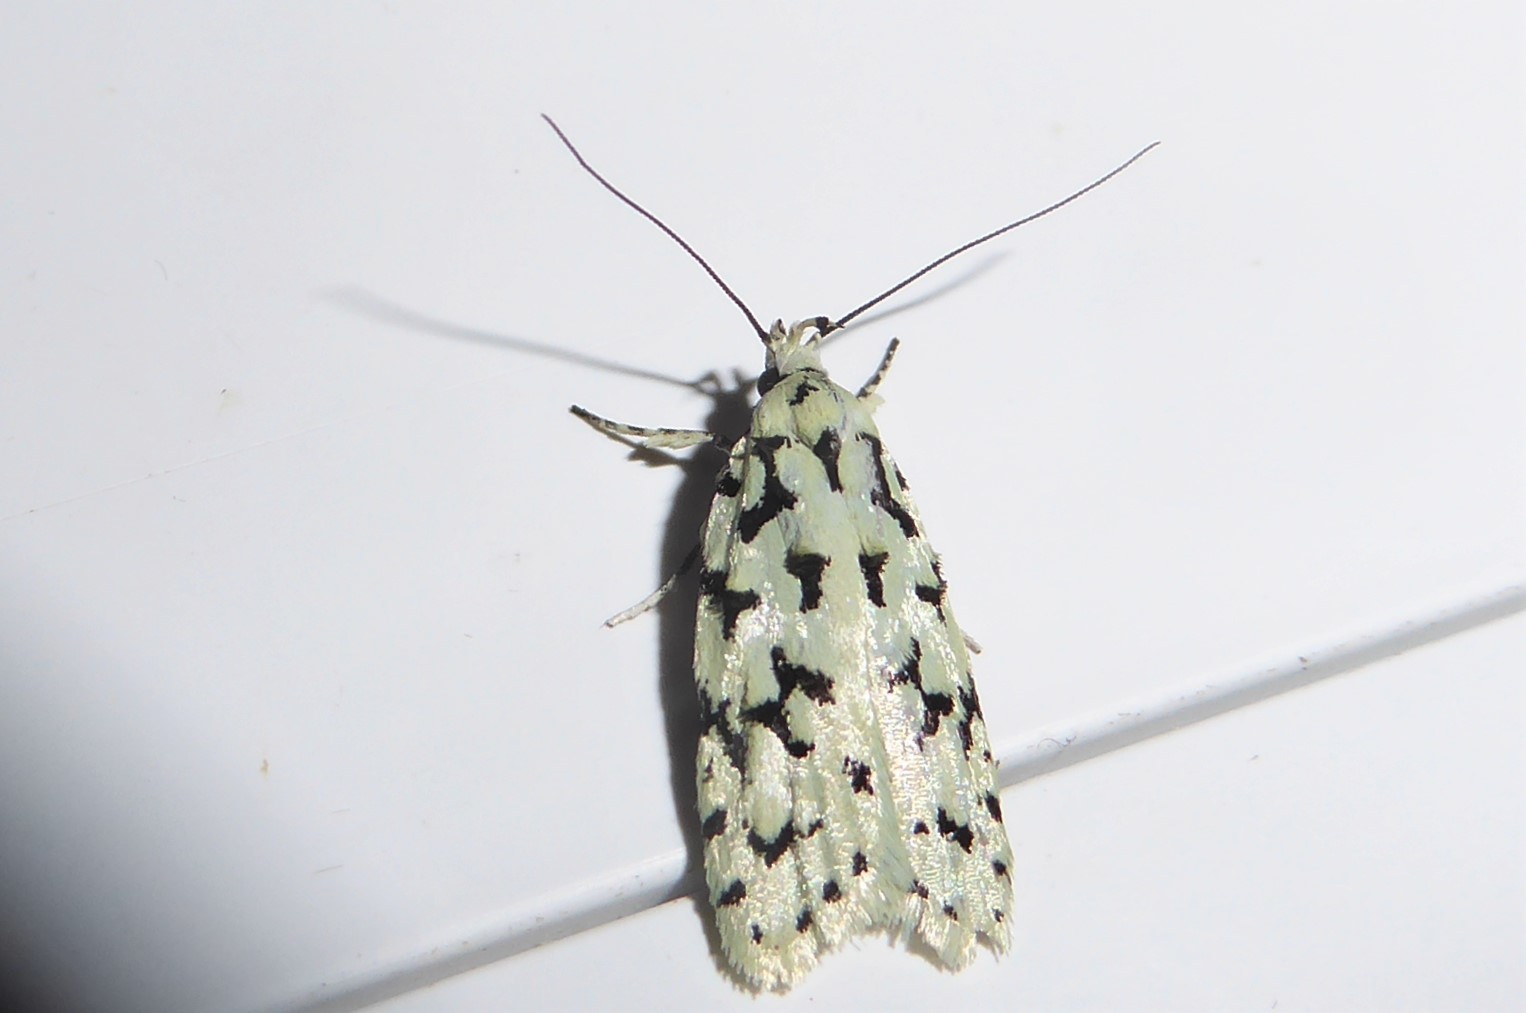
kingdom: Animalia
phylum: Arthropoda
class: Insecta
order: Lepidoptera
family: Oecophoridae
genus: Izatha
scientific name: Izatha huttoni
